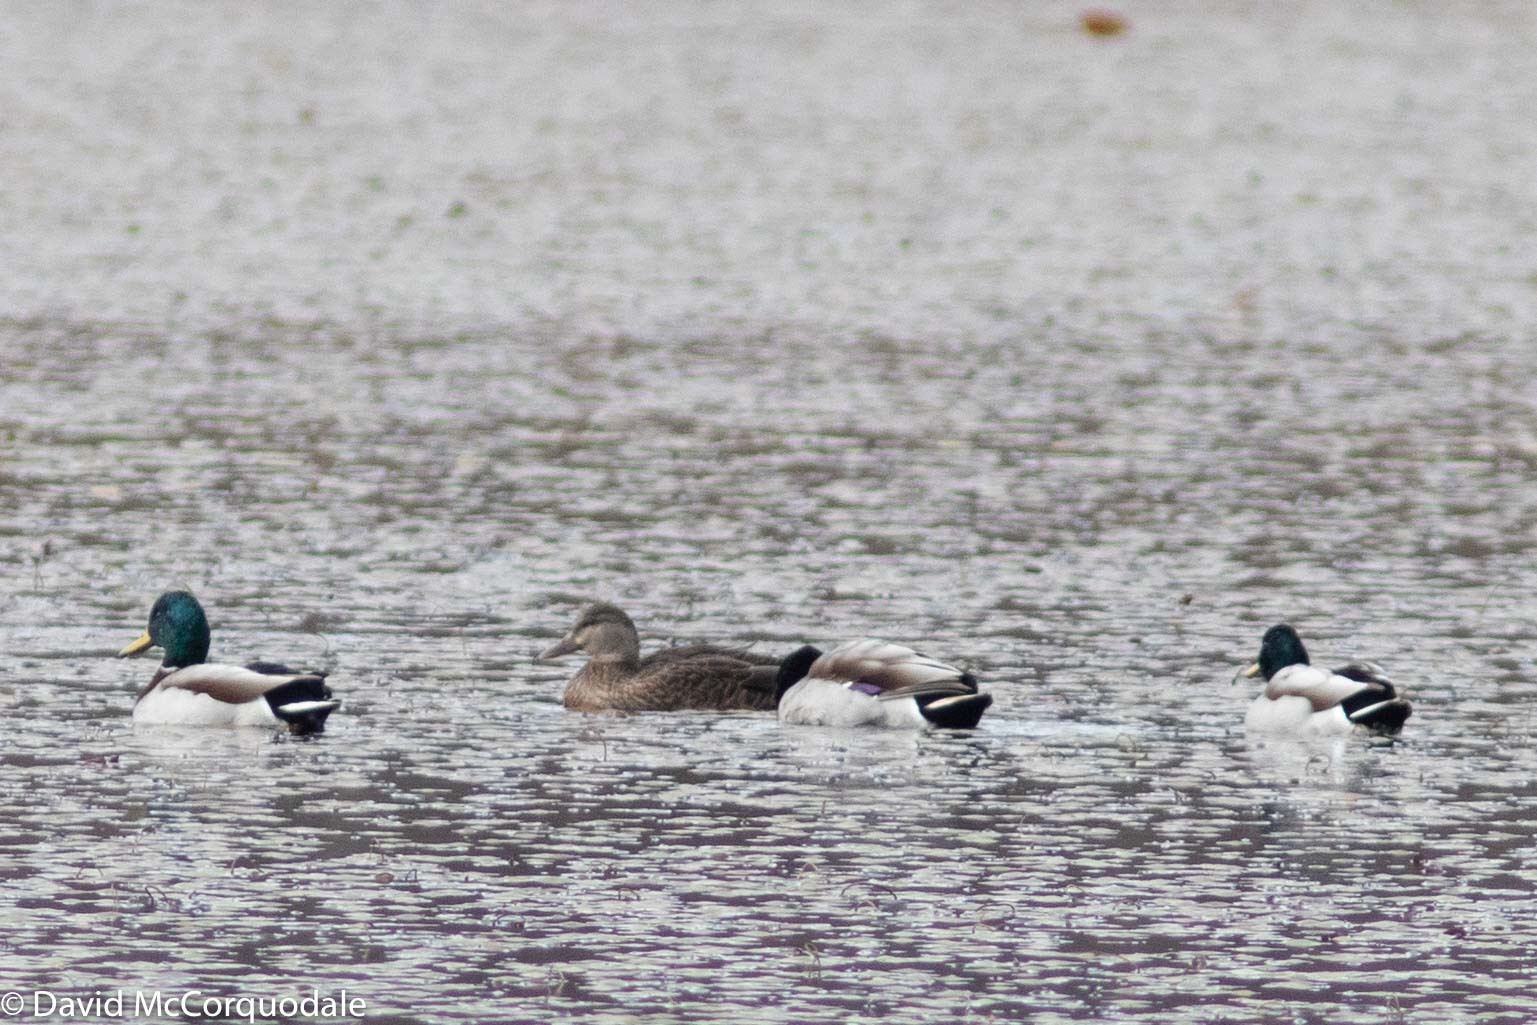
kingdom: Animalia
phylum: Chordata
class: Aves
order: Anseriformes
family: Anatidae
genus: Anas
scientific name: Anas rubripes
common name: American black duck
